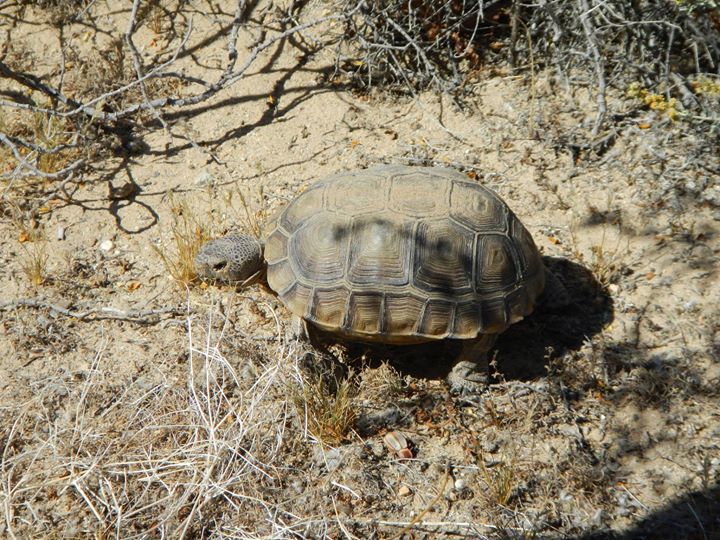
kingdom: Animalia
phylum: Chordata
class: Testudines
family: Testudinidae
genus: Gopherus
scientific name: Gopherus agassizii
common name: Mojave desert tortoise
